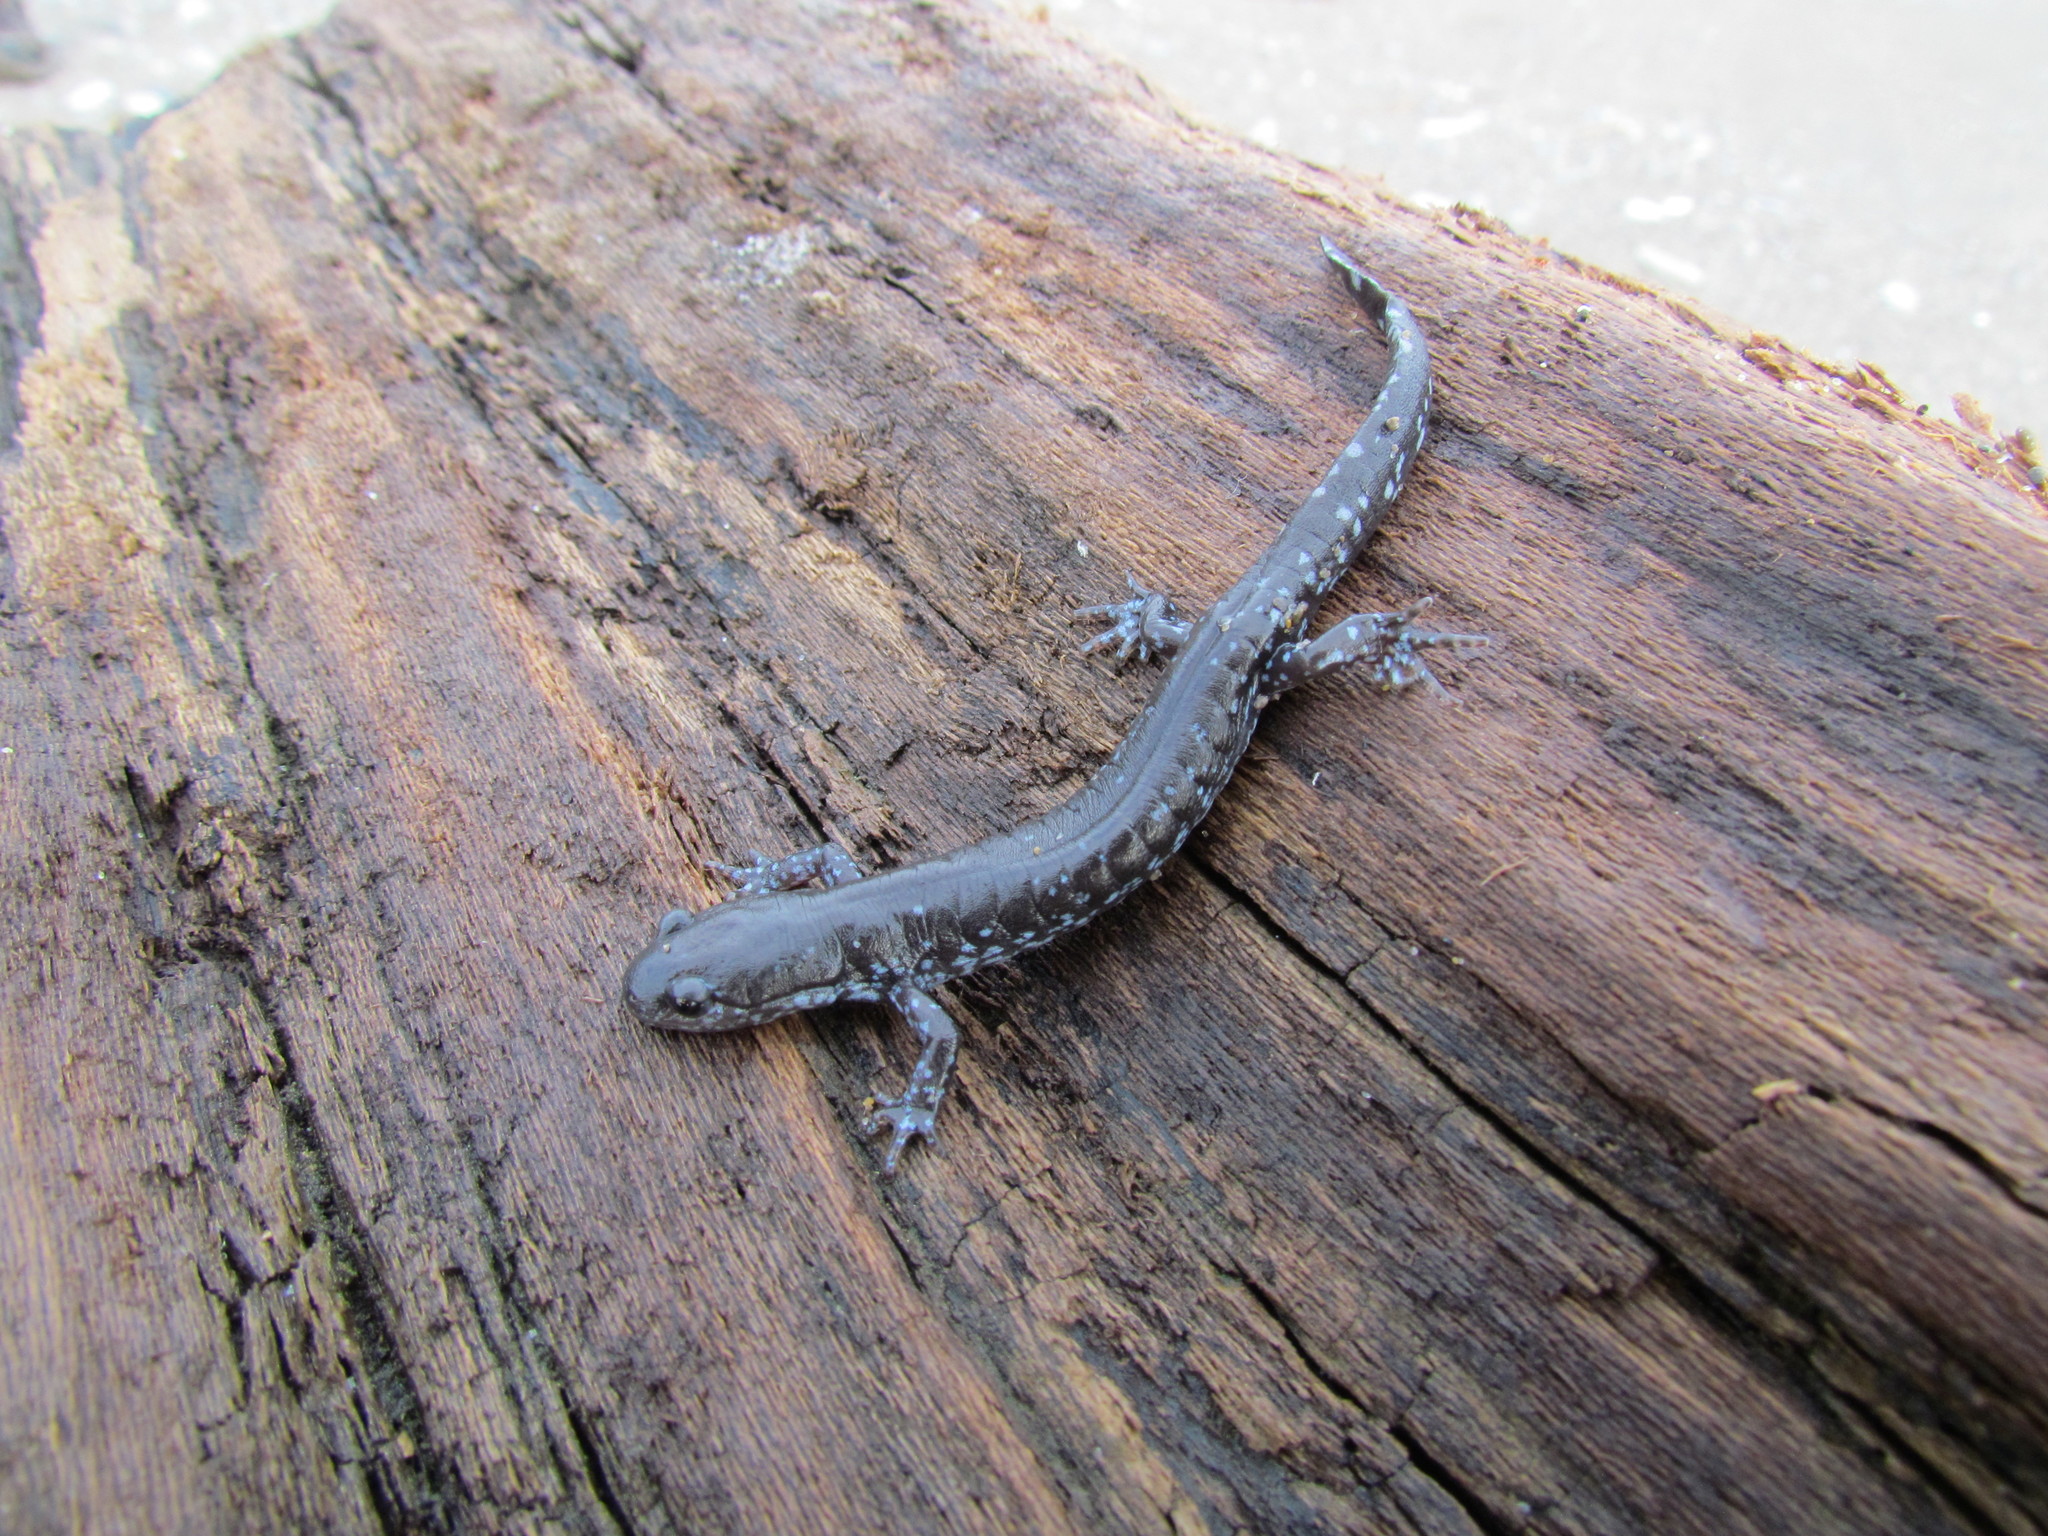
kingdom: Animalia
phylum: Chordata
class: Amphibia
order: Caudata
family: Ambystomatidae
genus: Ambystoma
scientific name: Ambystoma unisexual
